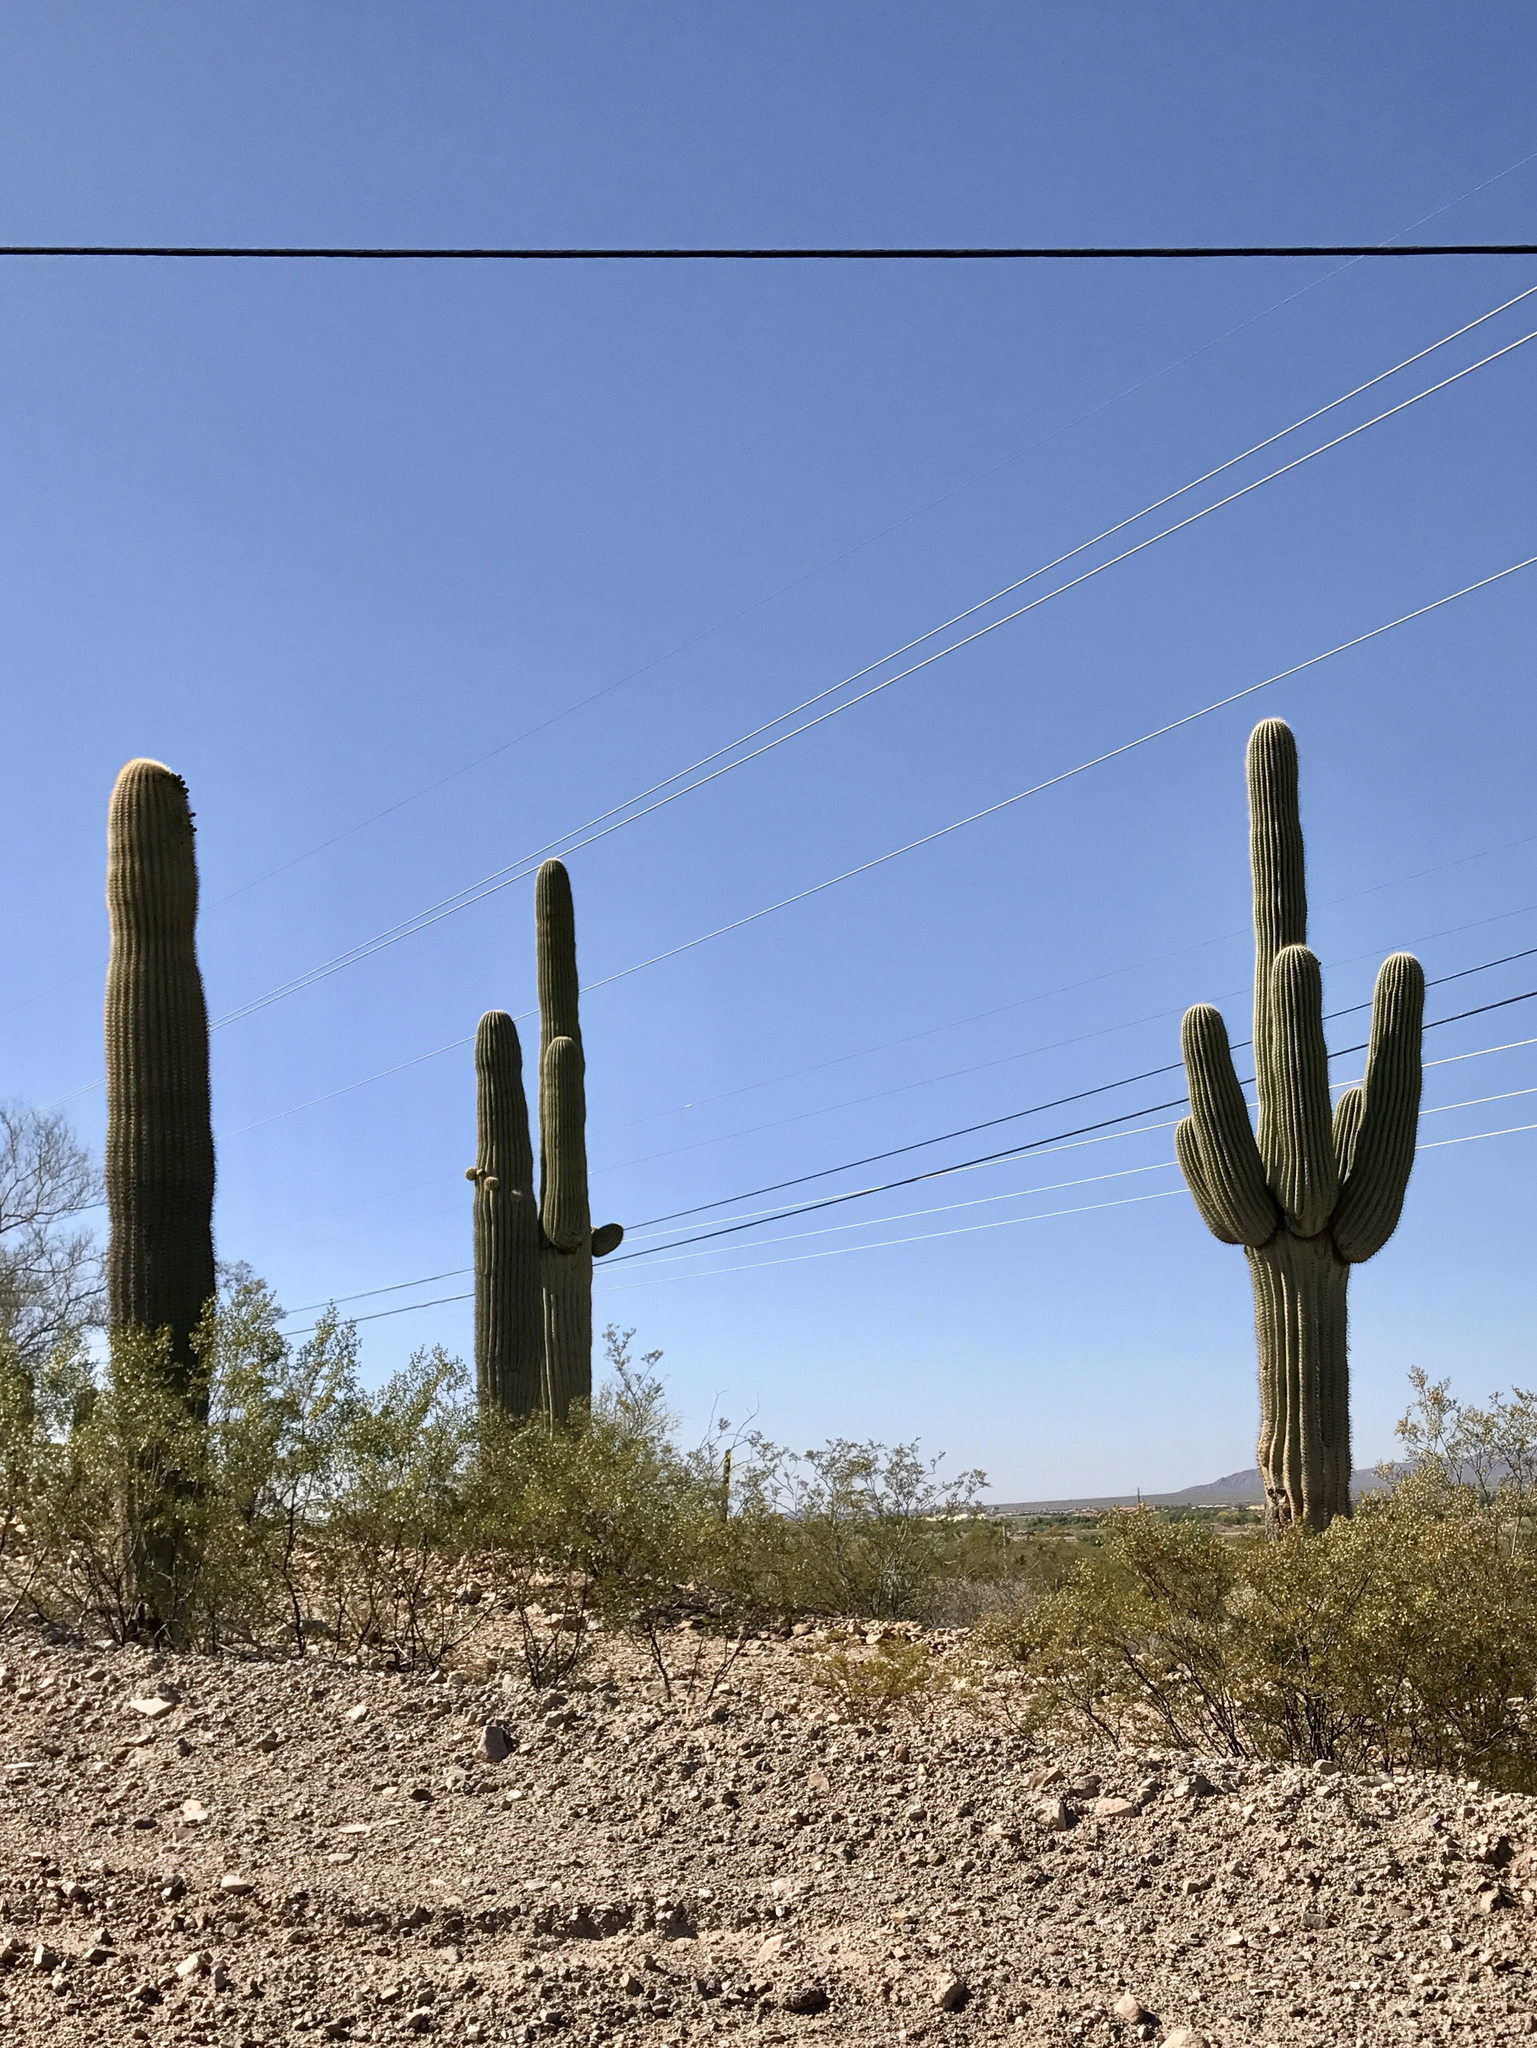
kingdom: Plantae
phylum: Tracheophyta
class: Magnoliopsida
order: Caryophyllales
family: Cactaceae
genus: Carnegiea
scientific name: Carnegiea gigantea
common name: Saguaro
